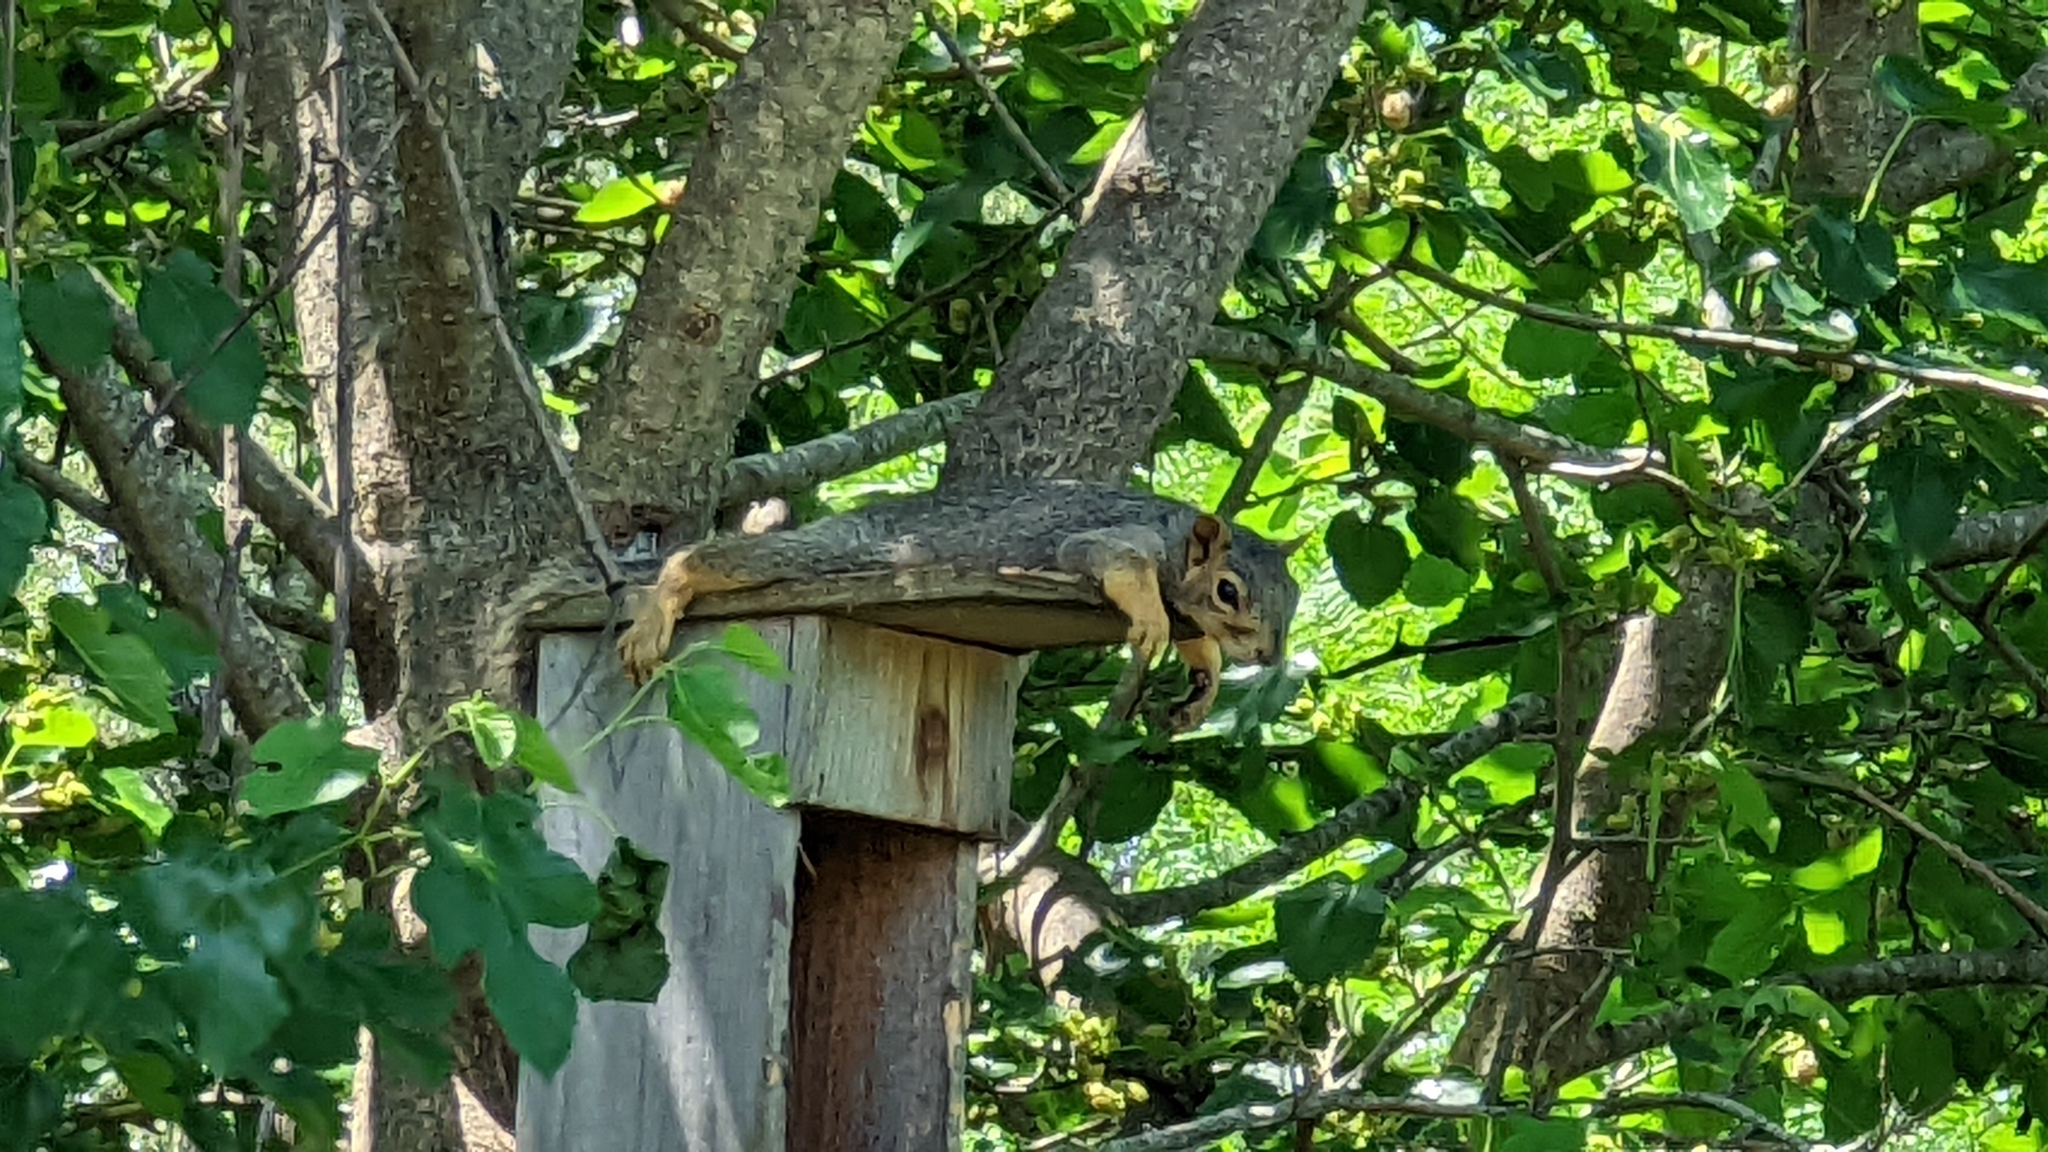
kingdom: Animalia
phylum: Chordata
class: Mammalia
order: Rodentia
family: Sciuridae
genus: Sciurus
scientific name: Sciurus niger
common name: Fox squirrel
